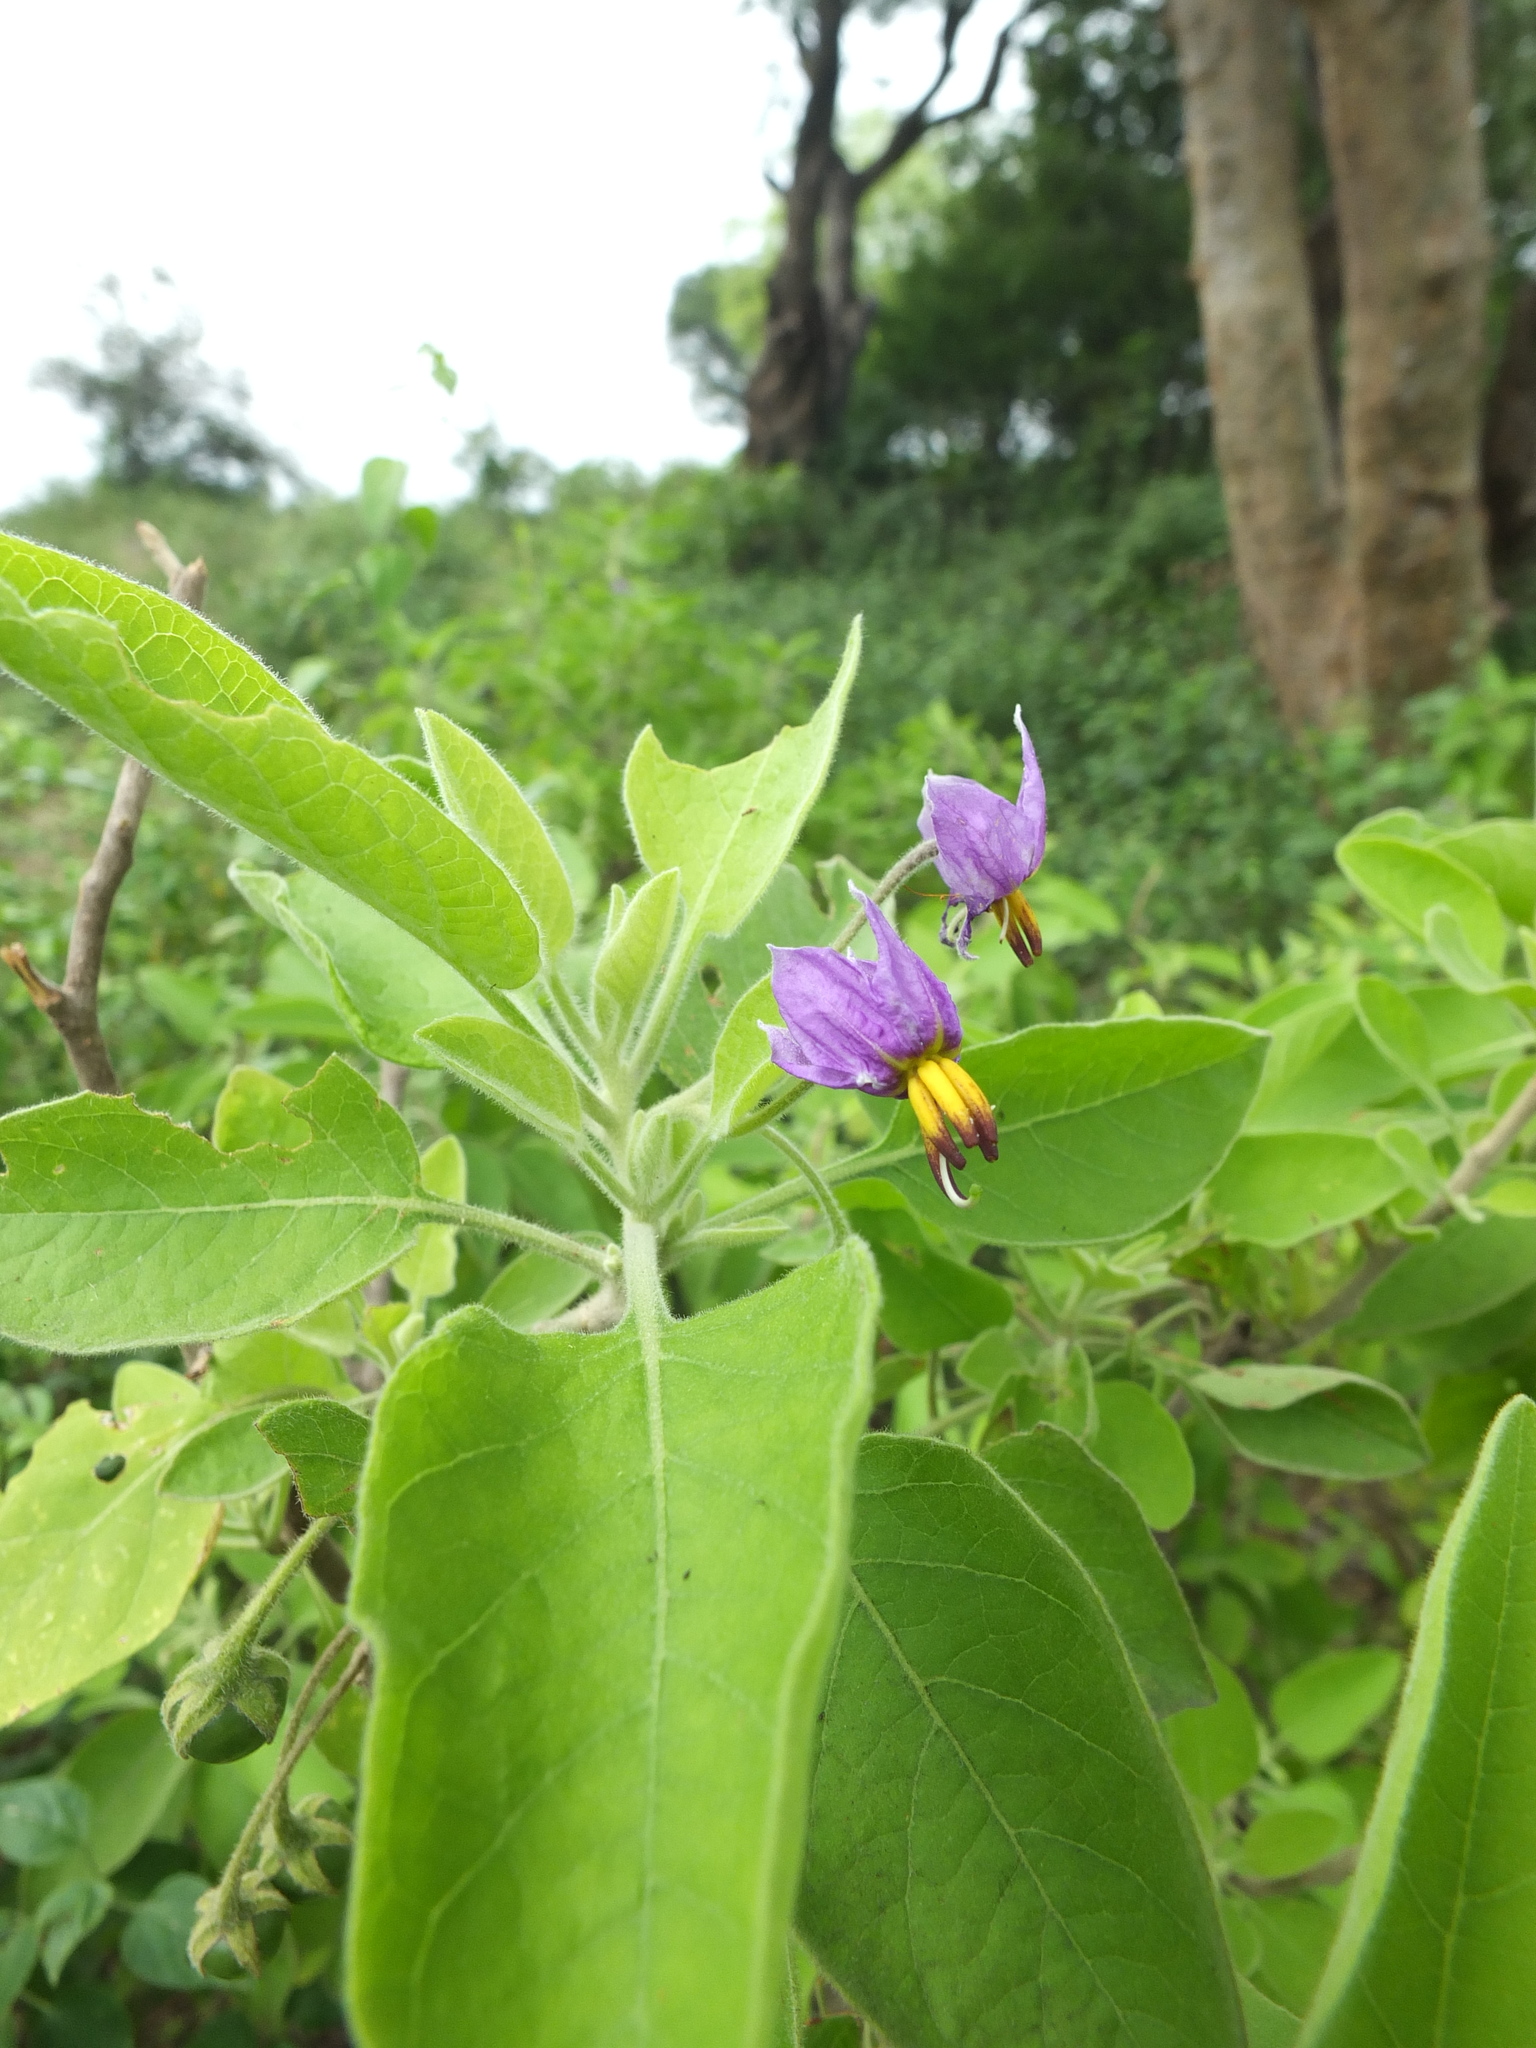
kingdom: Plantae
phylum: Tracheophyta
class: Magnoliopsida
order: Solanales
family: Solanaceae
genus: Solanum
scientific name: Solanum pubescens
